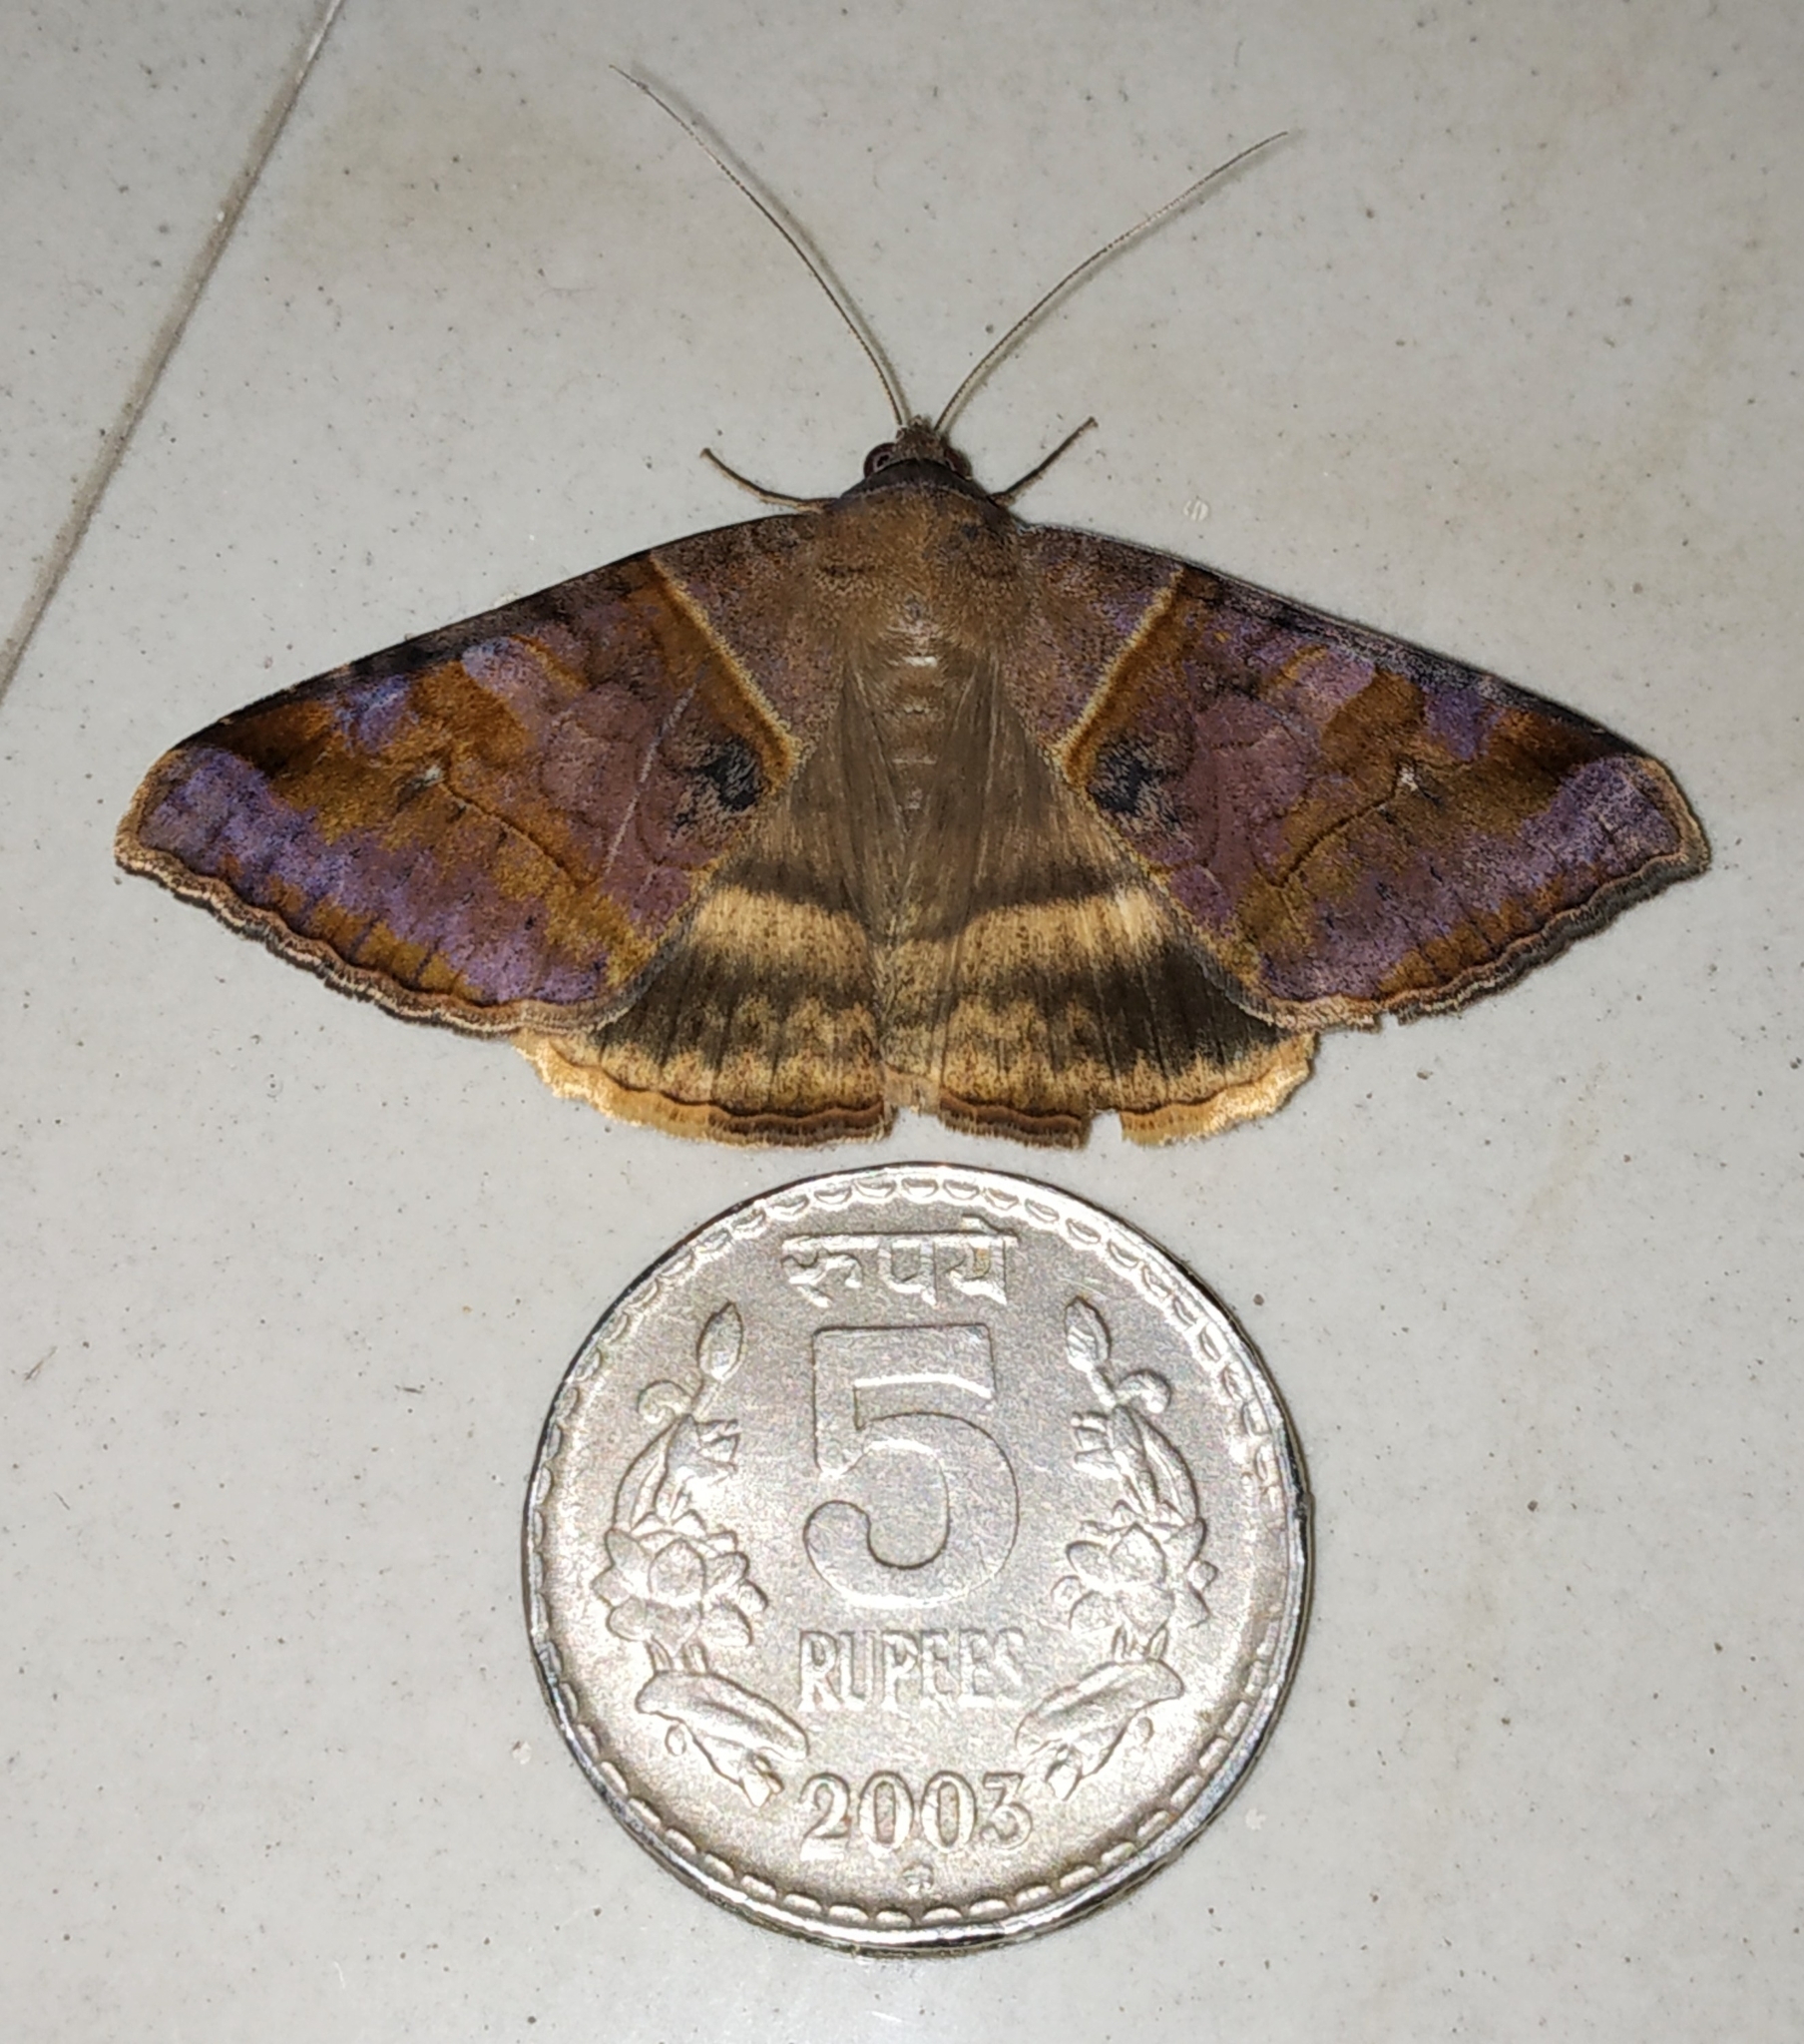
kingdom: Animalia
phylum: Arthropoda
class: Insecta
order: Lepidoptera
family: Erebidae
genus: Mocis
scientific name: Mocis undata
